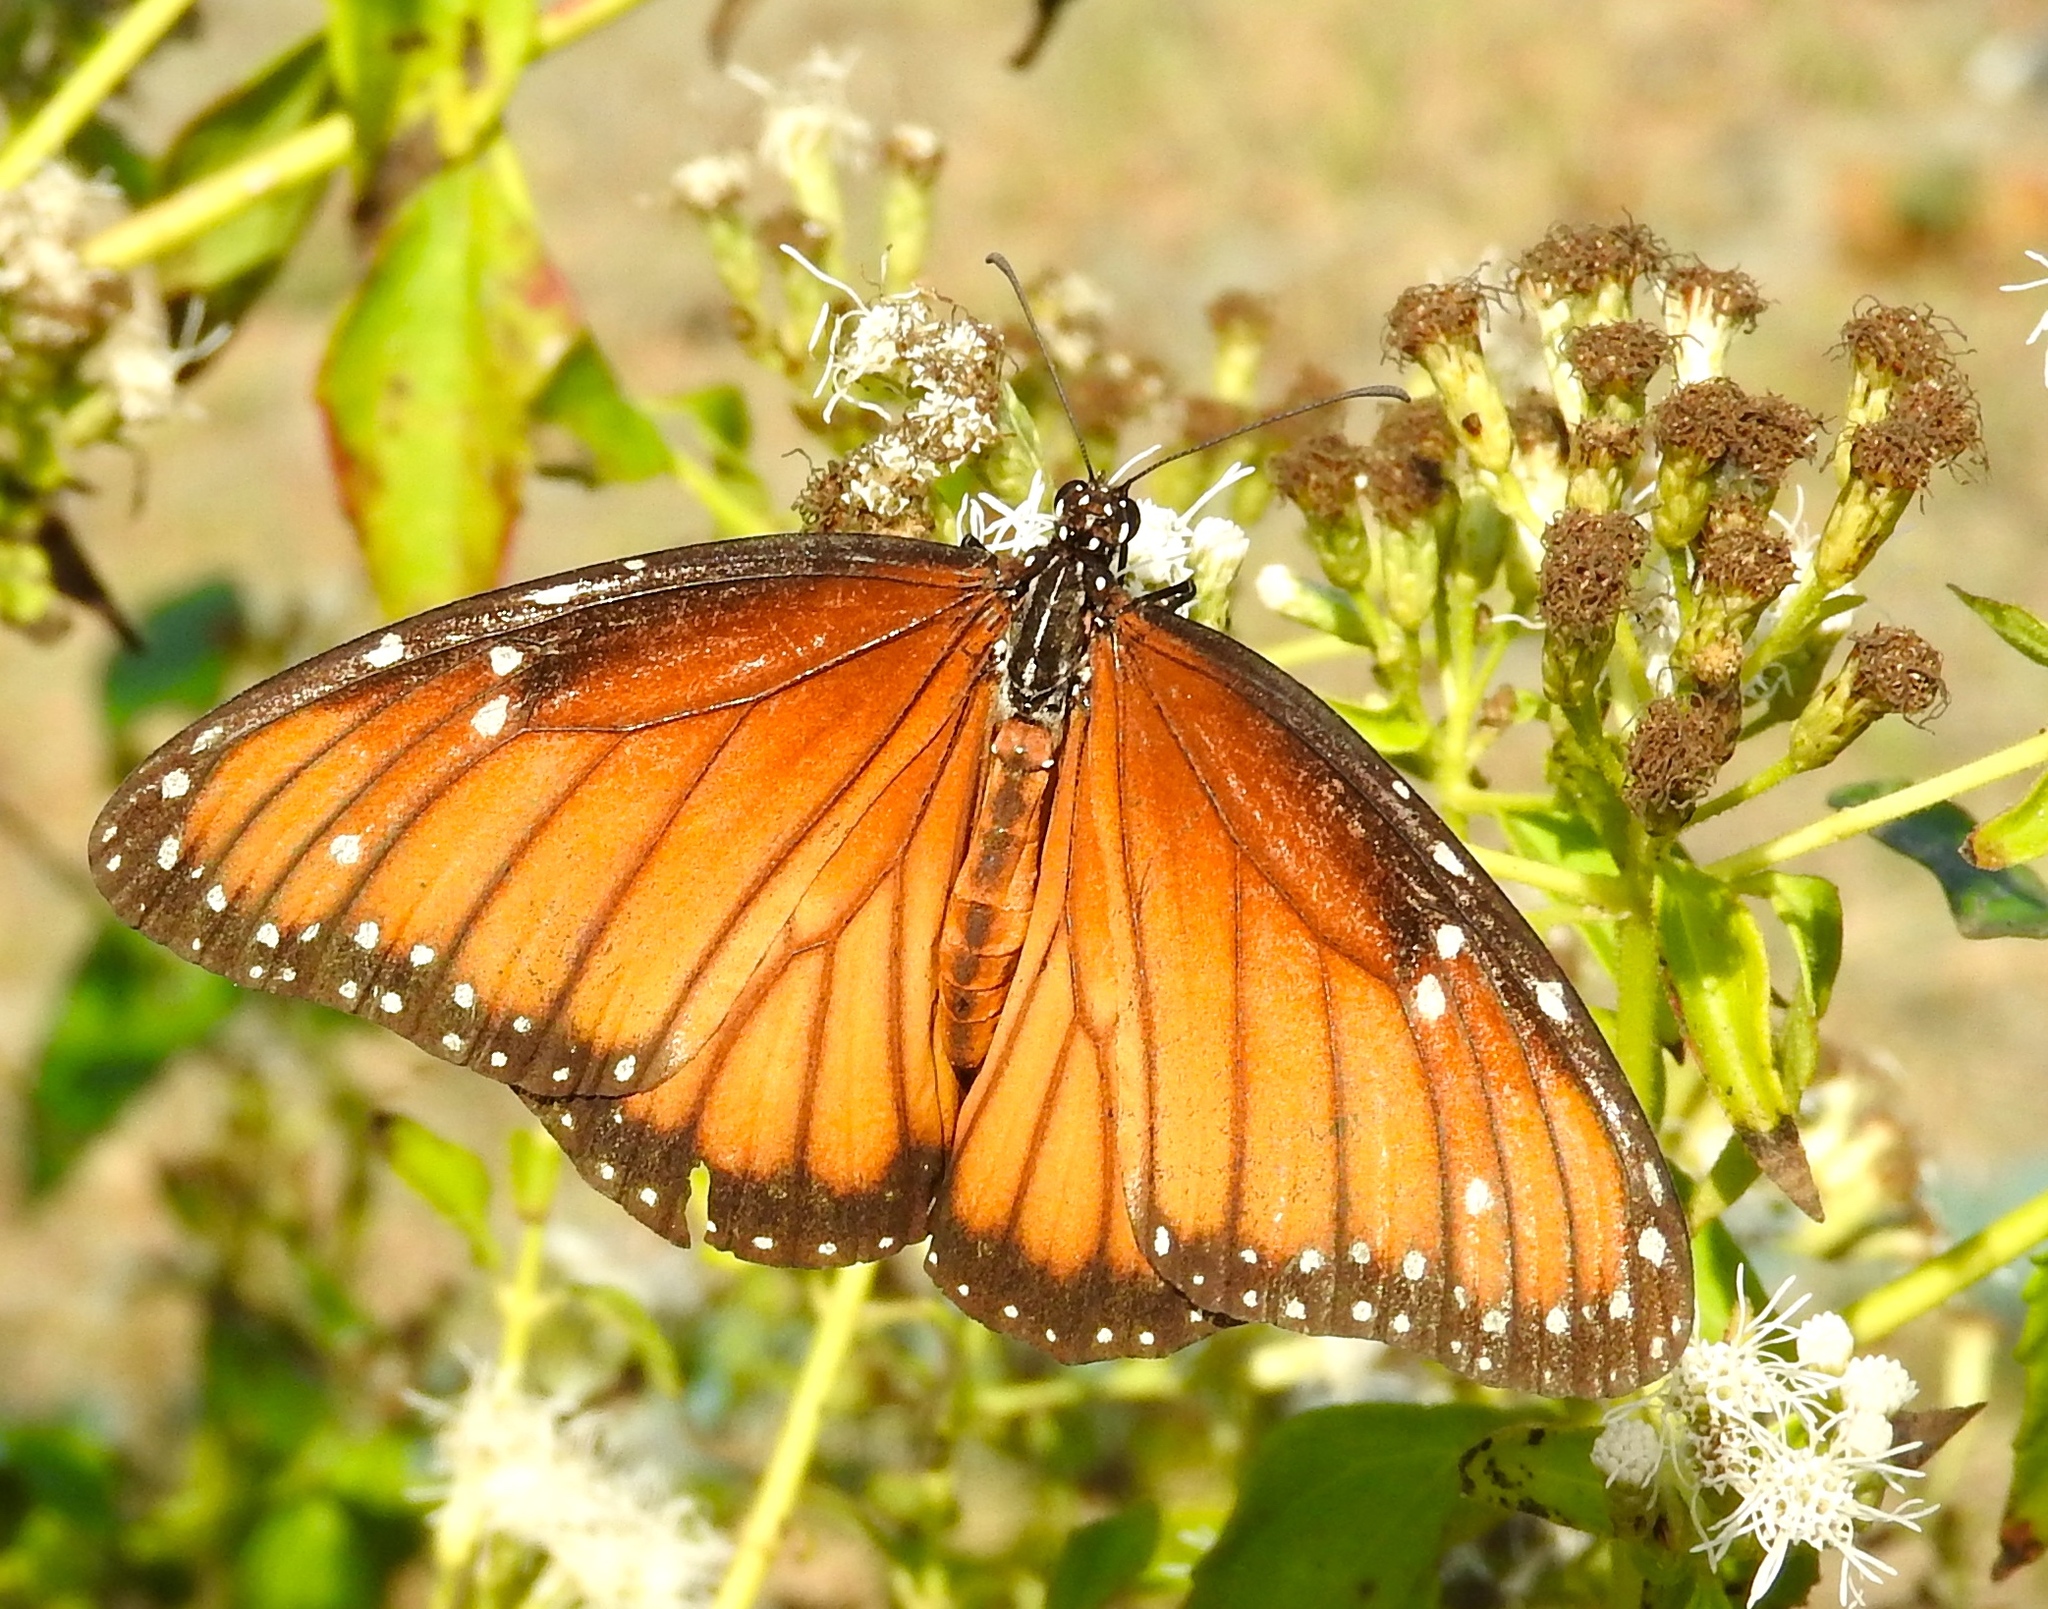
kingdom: Animalia
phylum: Arthropoda
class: Insecta
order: Lepidoptera
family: Nymphalidae
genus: Danaus
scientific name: Danaus eresimus
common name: Soldier
